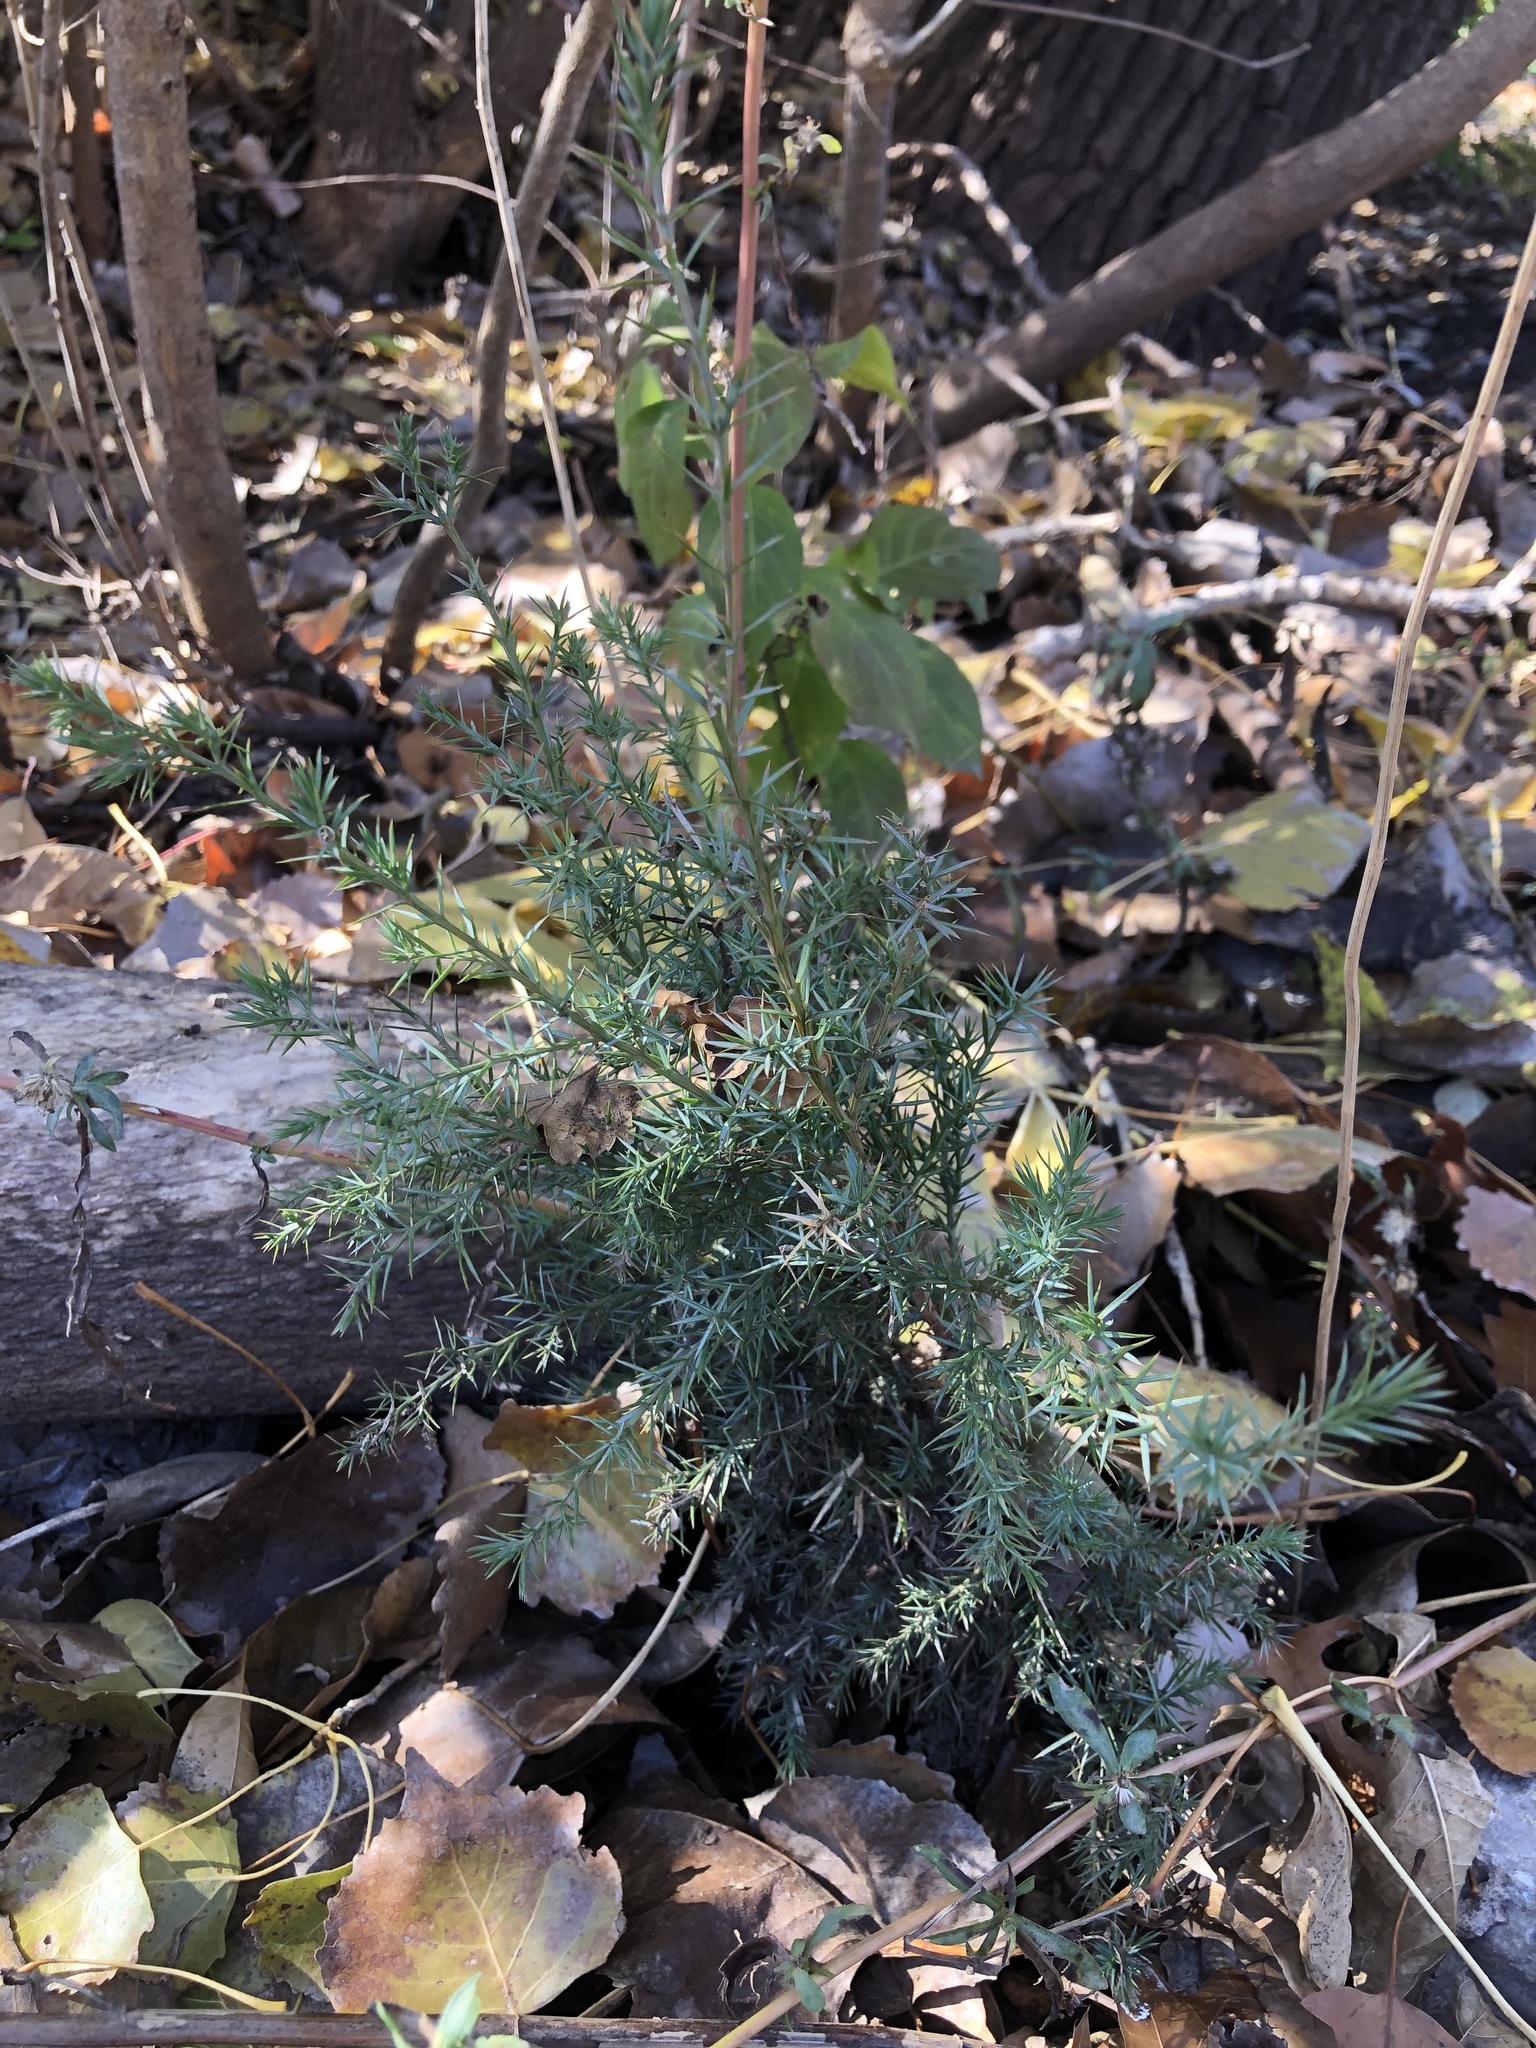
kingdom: Plantae
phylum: Tracheophyta
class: Pinopsida
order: Pinales
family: Cupressaceae
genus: Juniperus
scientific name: Juniperus virginiana
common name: Red juniper
